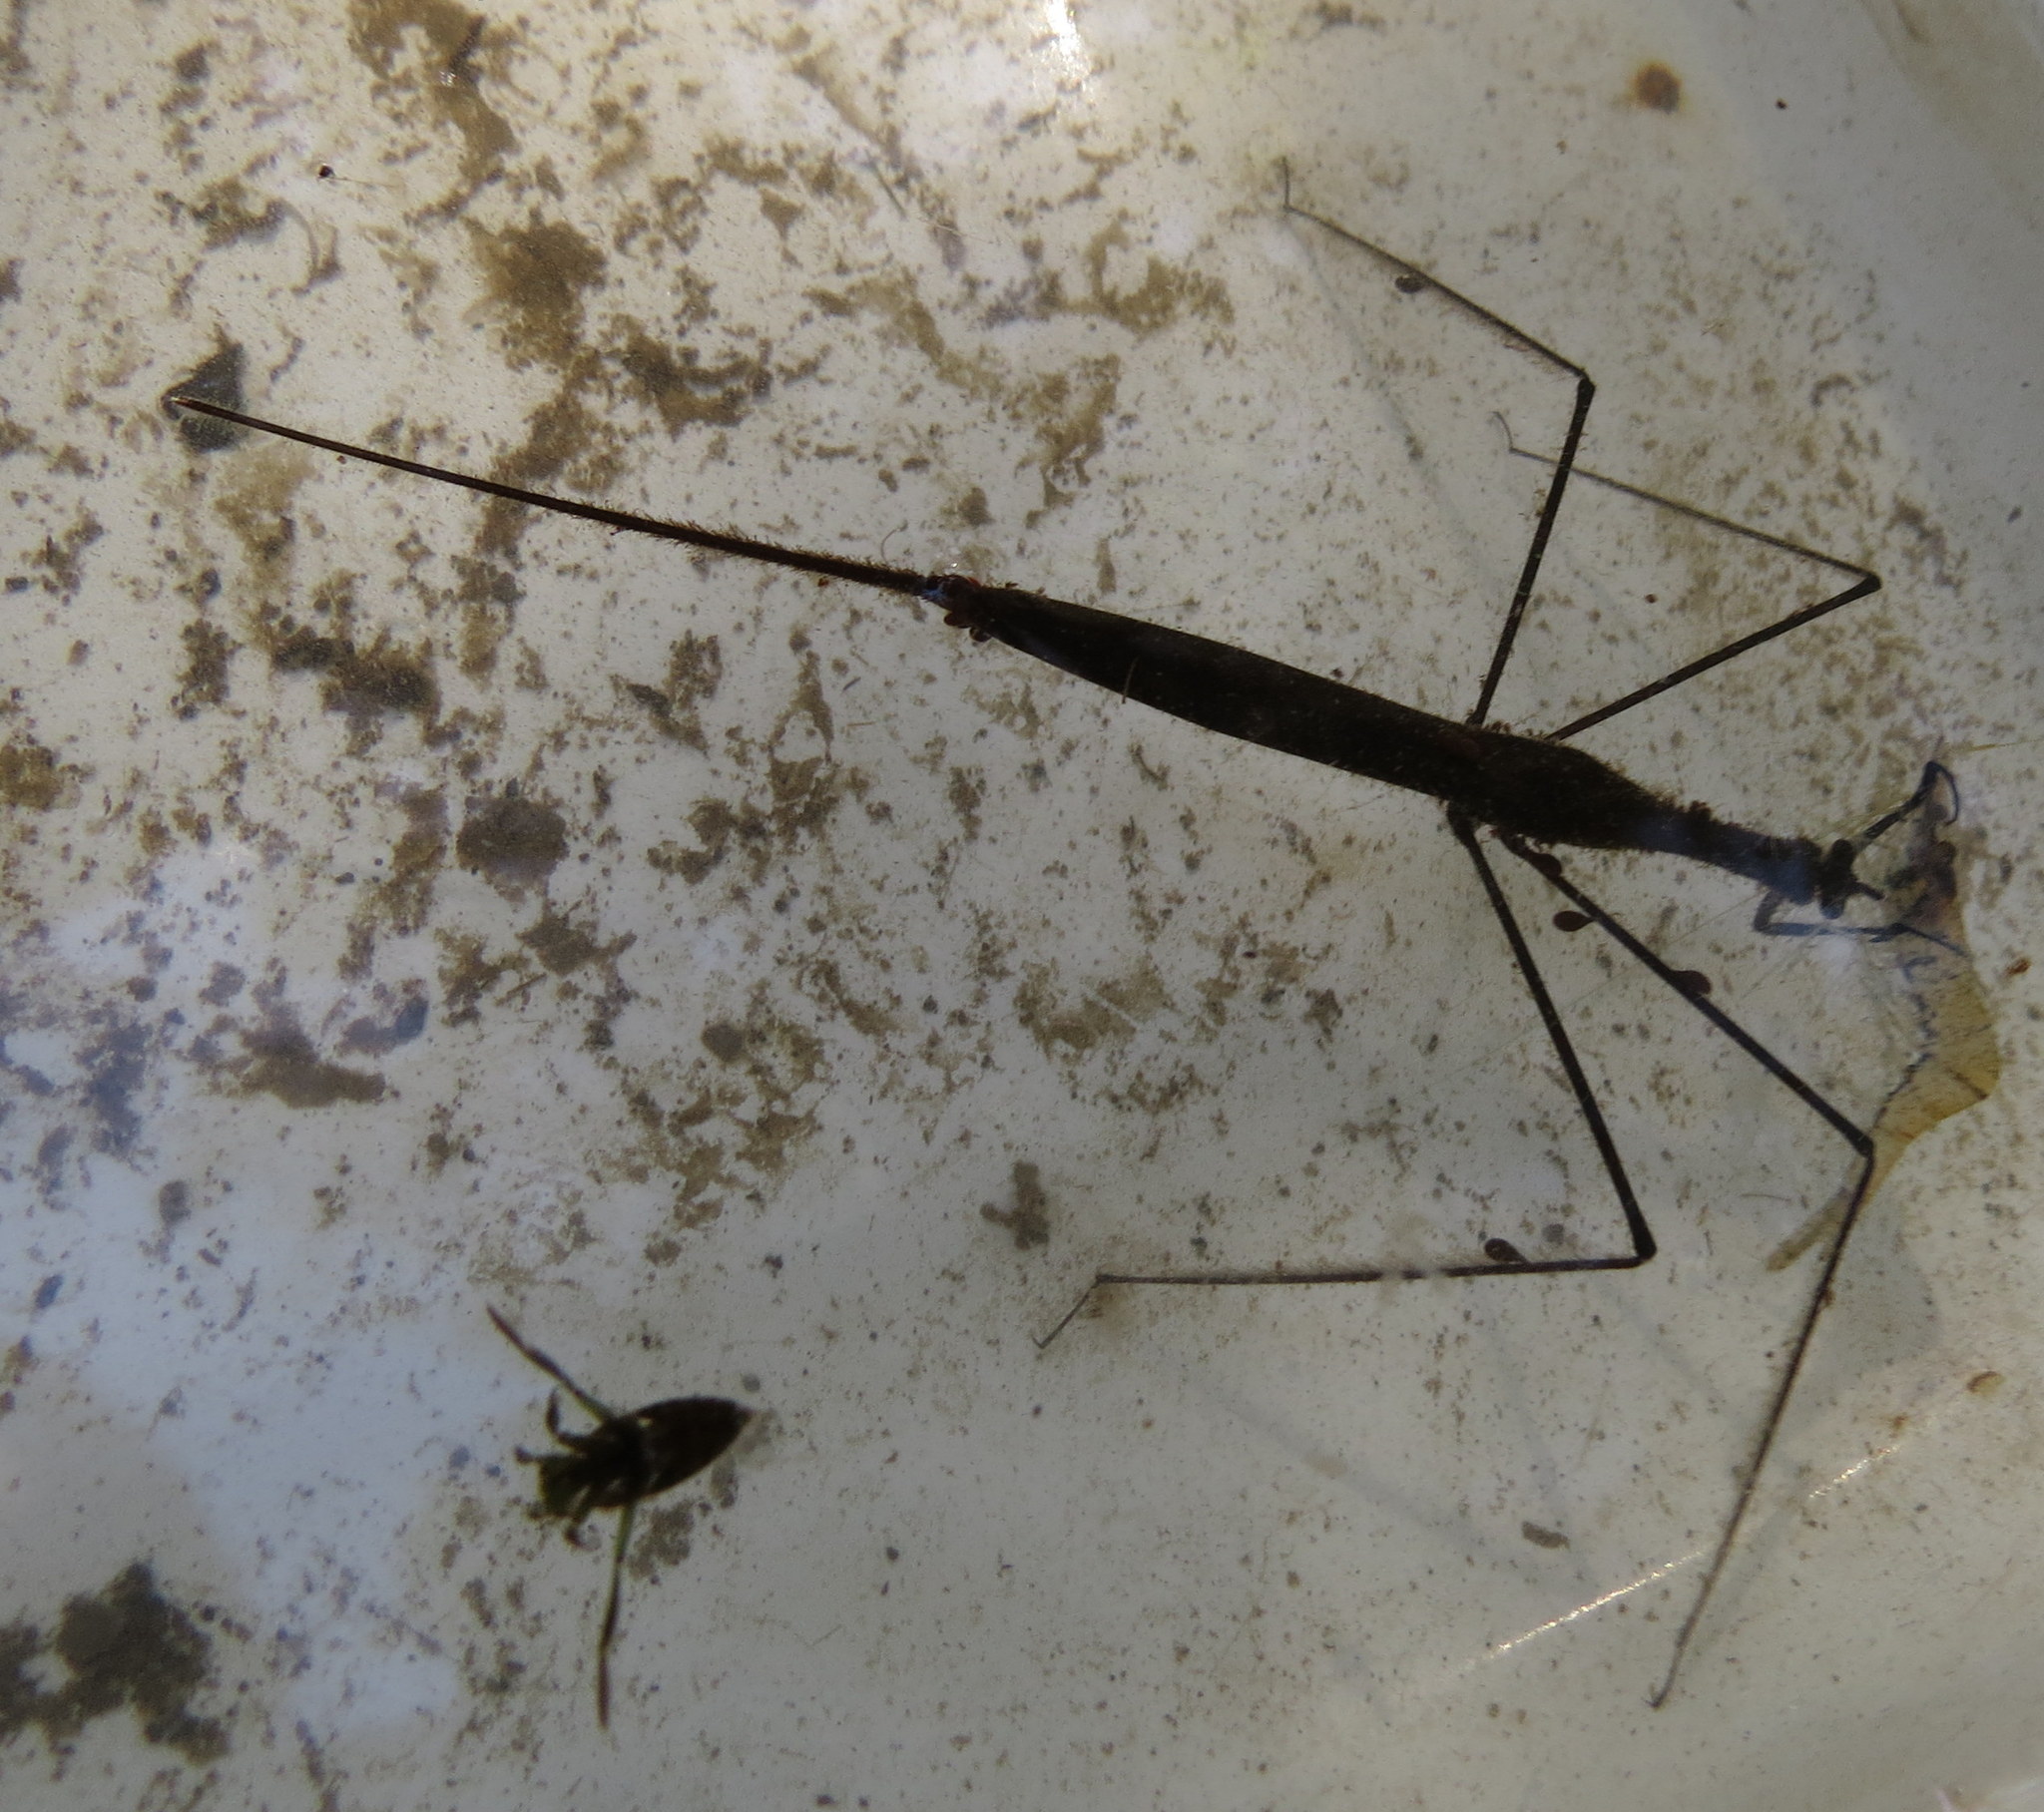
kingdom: Animalia
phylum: Arthropoda
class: Insecta
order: Hemiptera
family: Nepidae
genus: Ranatra
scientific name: Ranatra
